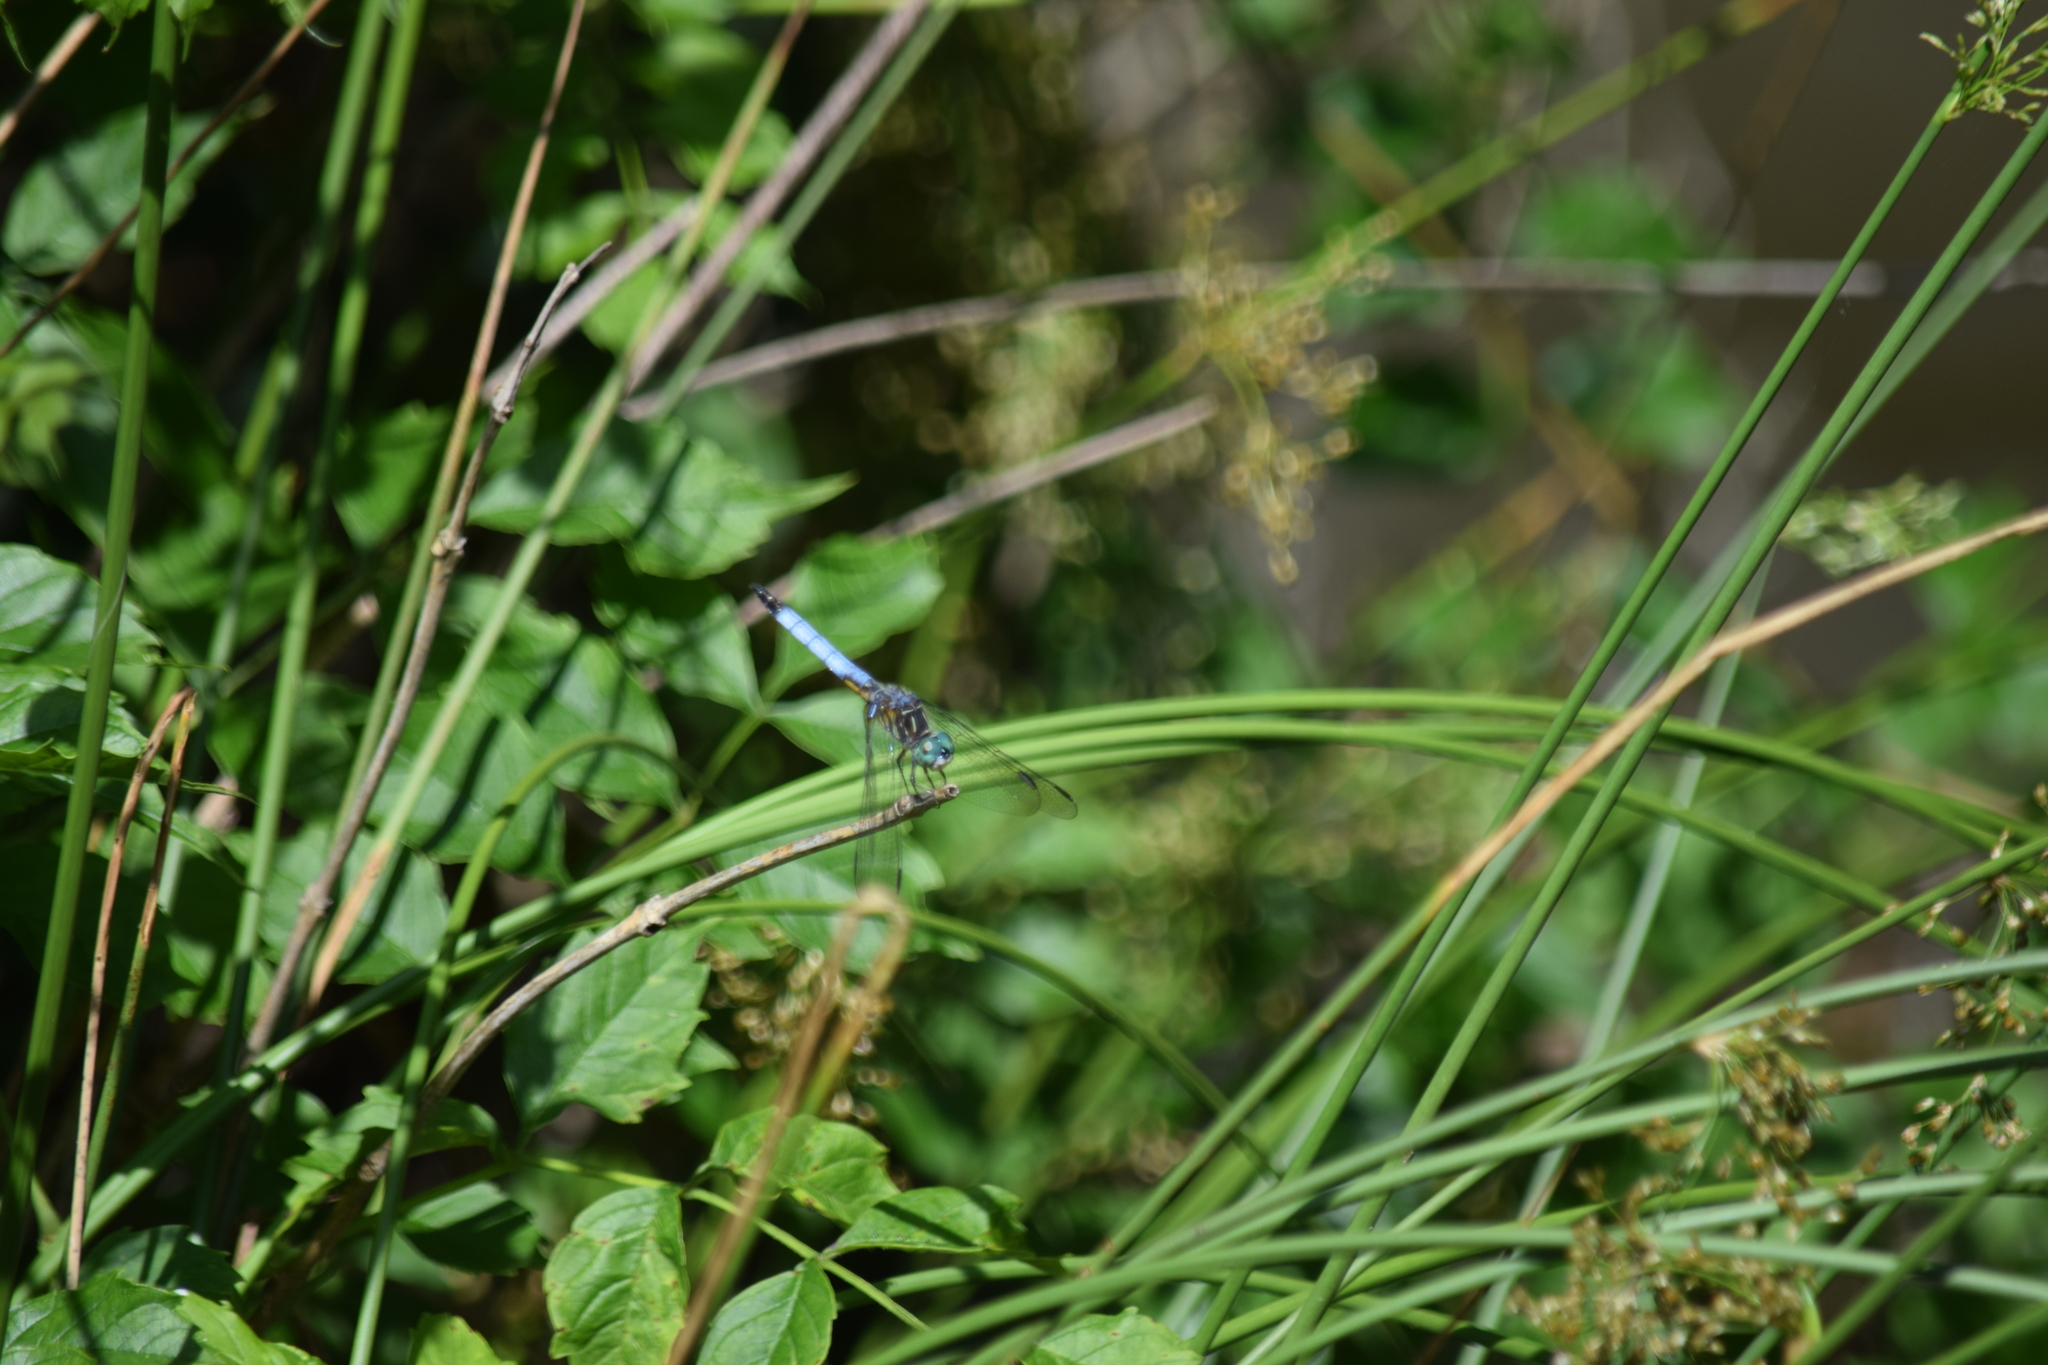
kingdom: Animalia
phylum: Arthropoda
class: Insecta
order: Odonata
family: Libellulidae
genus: Pachydiplax
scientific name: Pachydiplax longipennis
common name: Blue dasher
